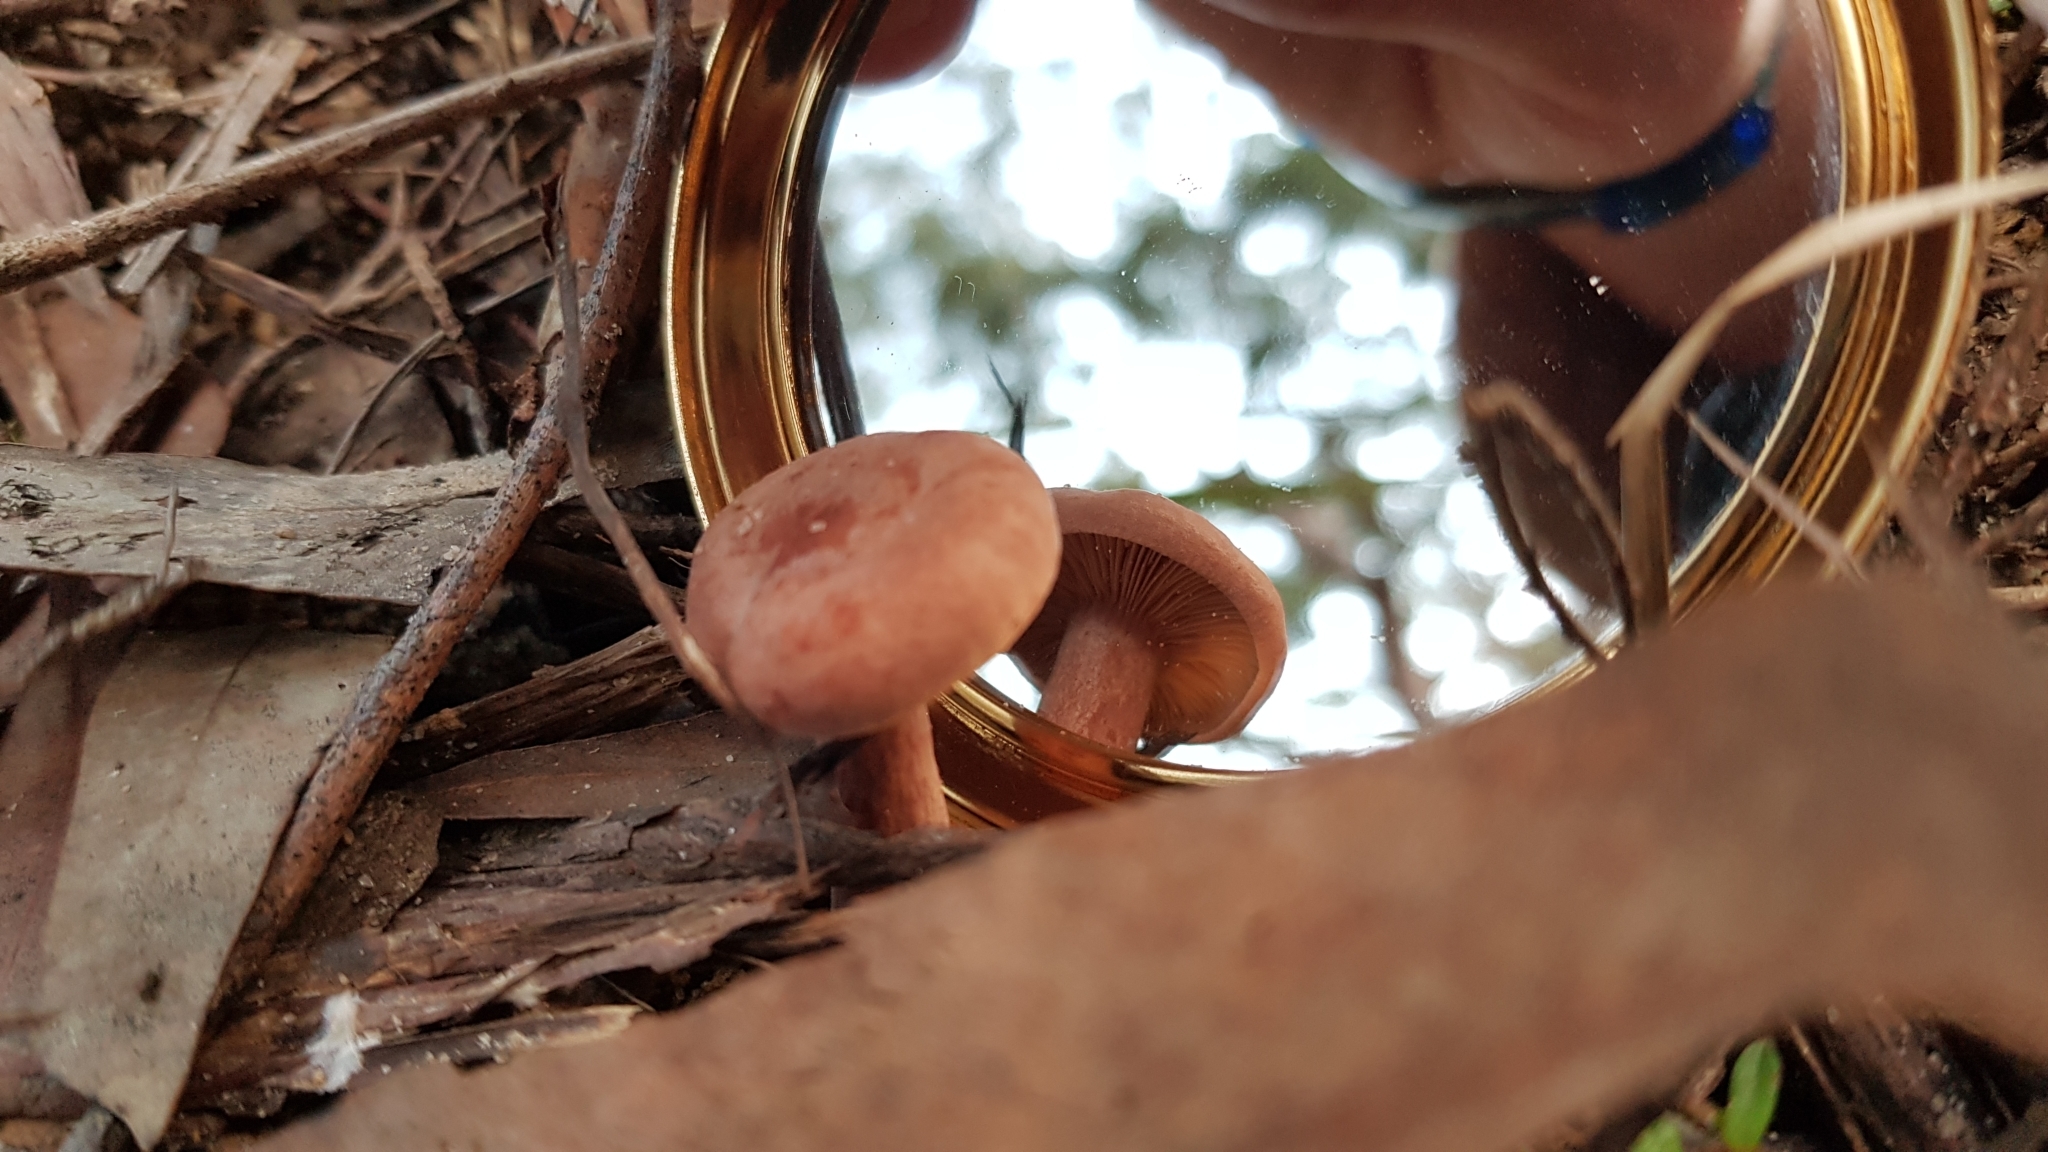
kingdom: Fungi
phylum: Basidiomycota
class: Agaricomycetes
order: Russulales
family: Russulaceae
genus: Lactarius
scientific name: Lactarius eucalypti
